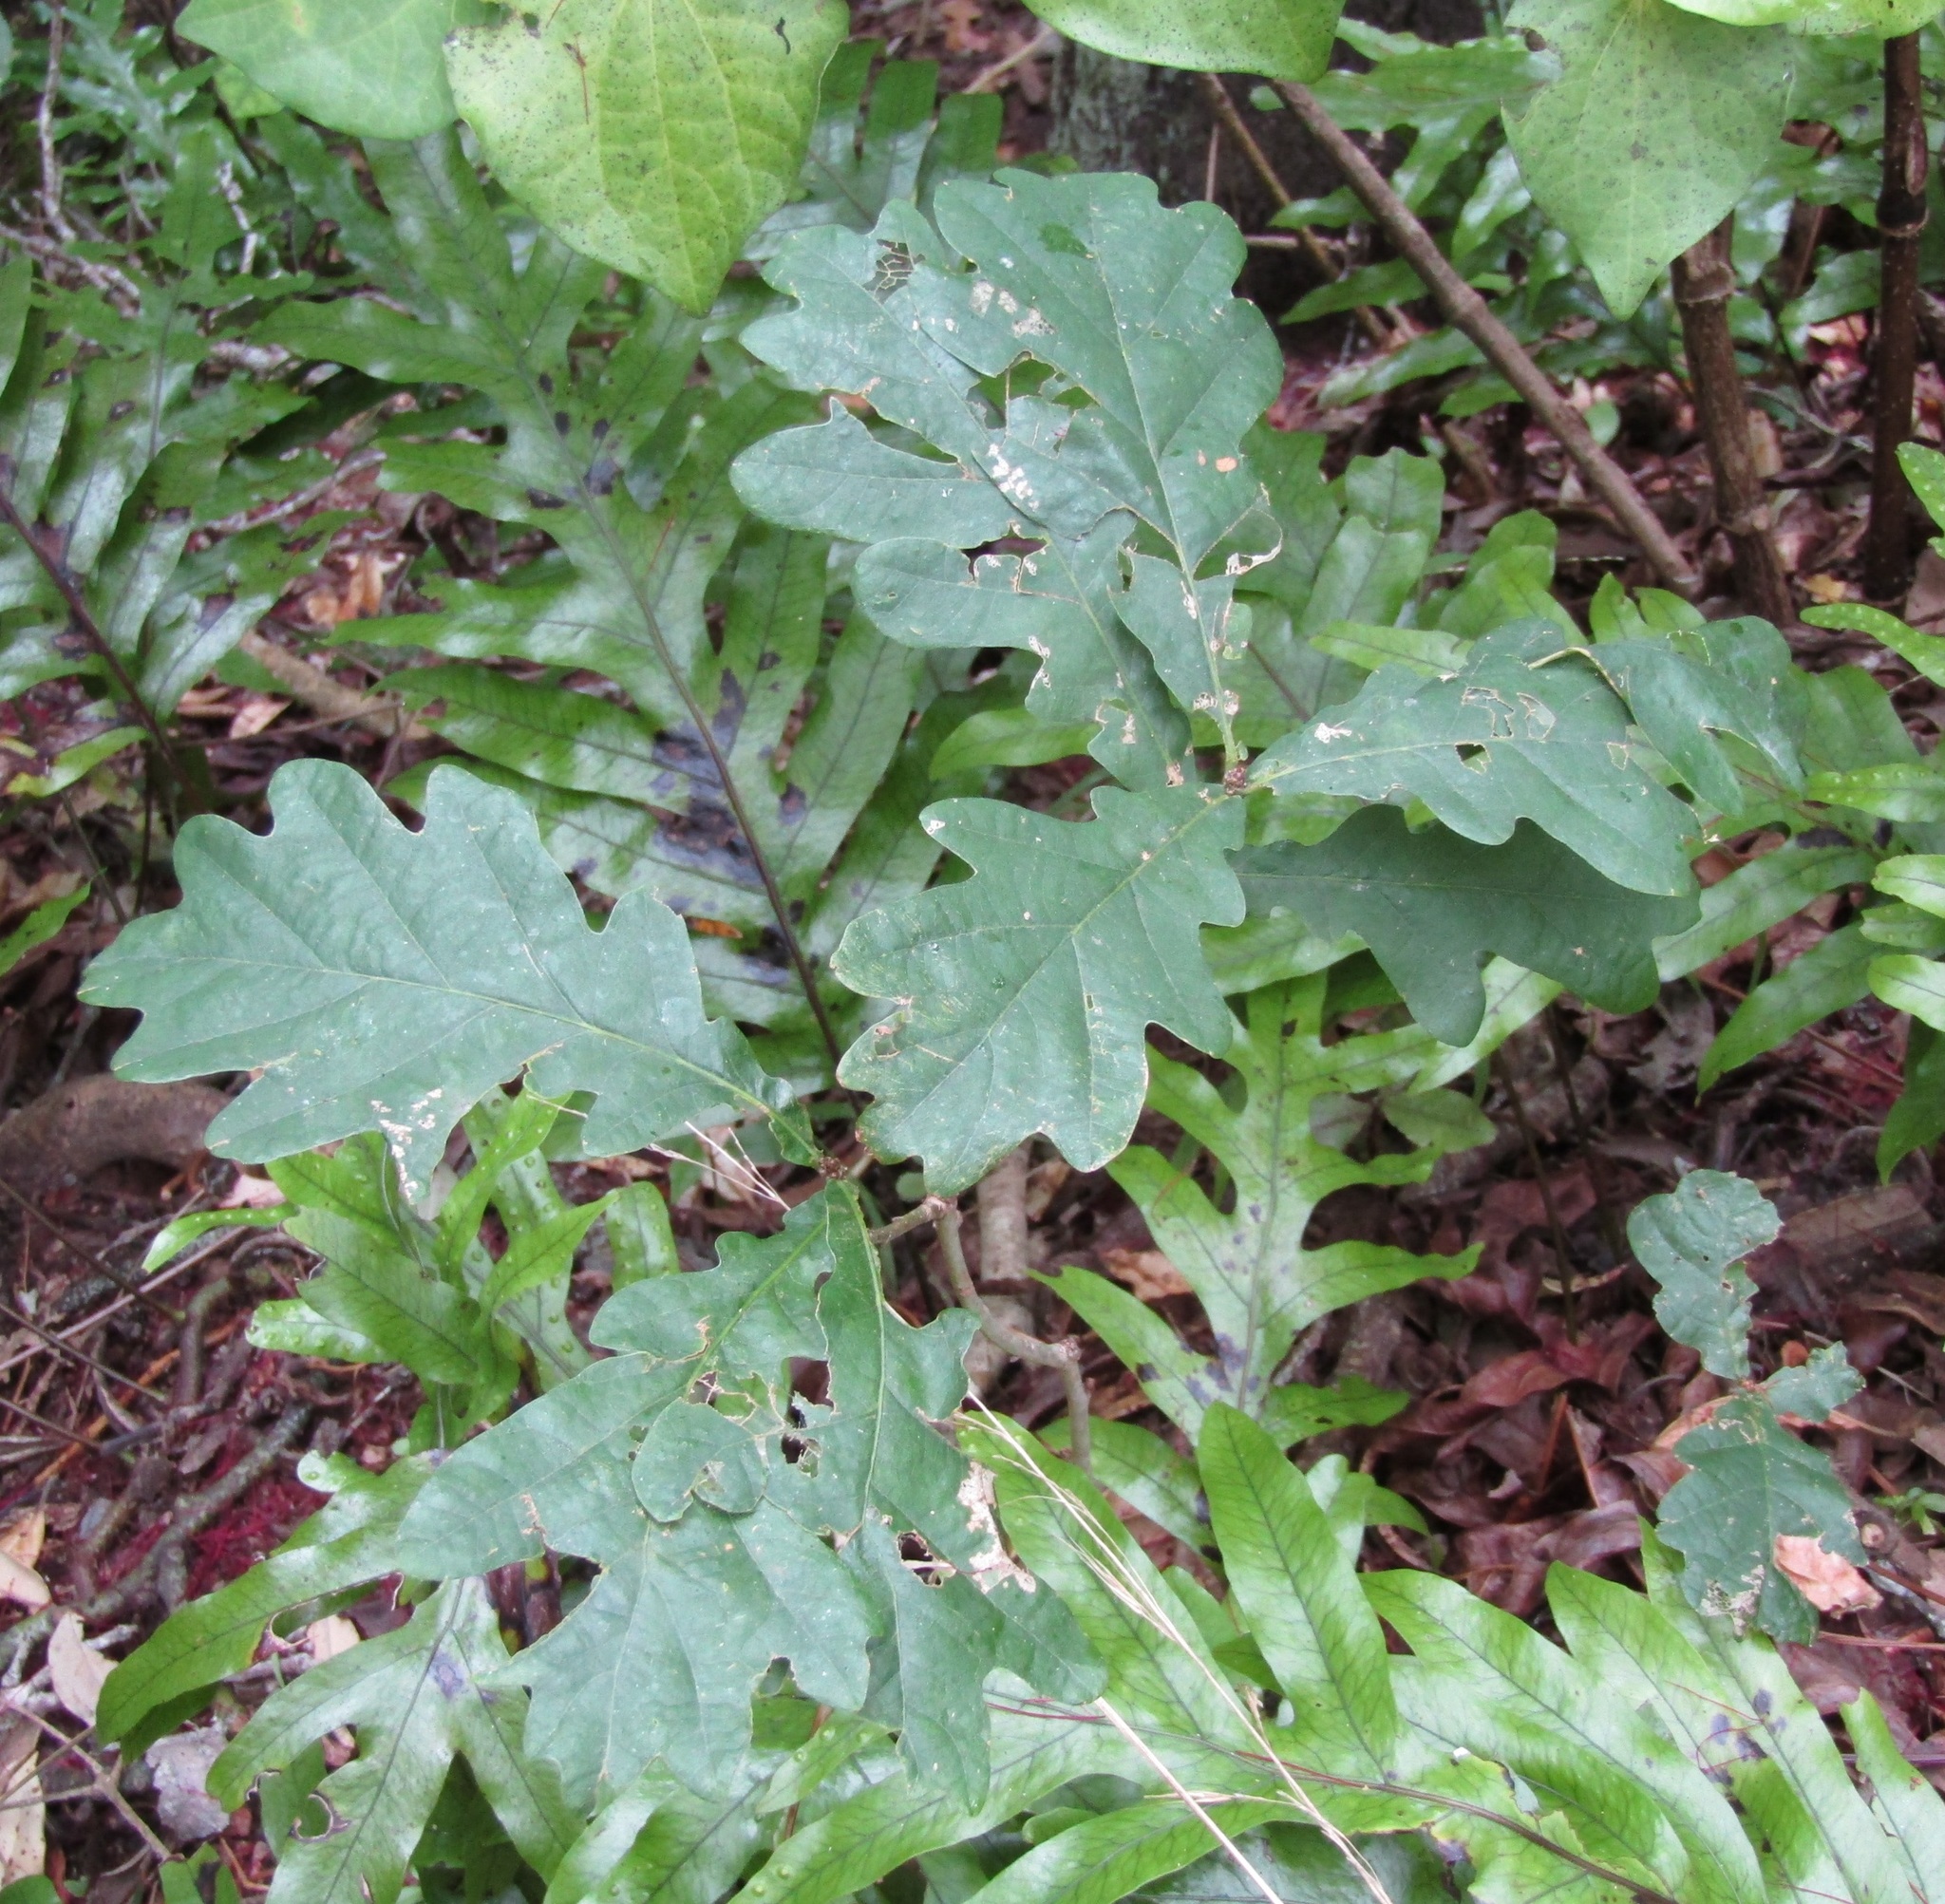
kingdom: Plantae
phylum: Tracheophyta
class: Magnoliopsida
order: Fagales
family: Fagaceae
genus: Quercus
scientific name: Quercus robur
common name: Pedunculate oak
